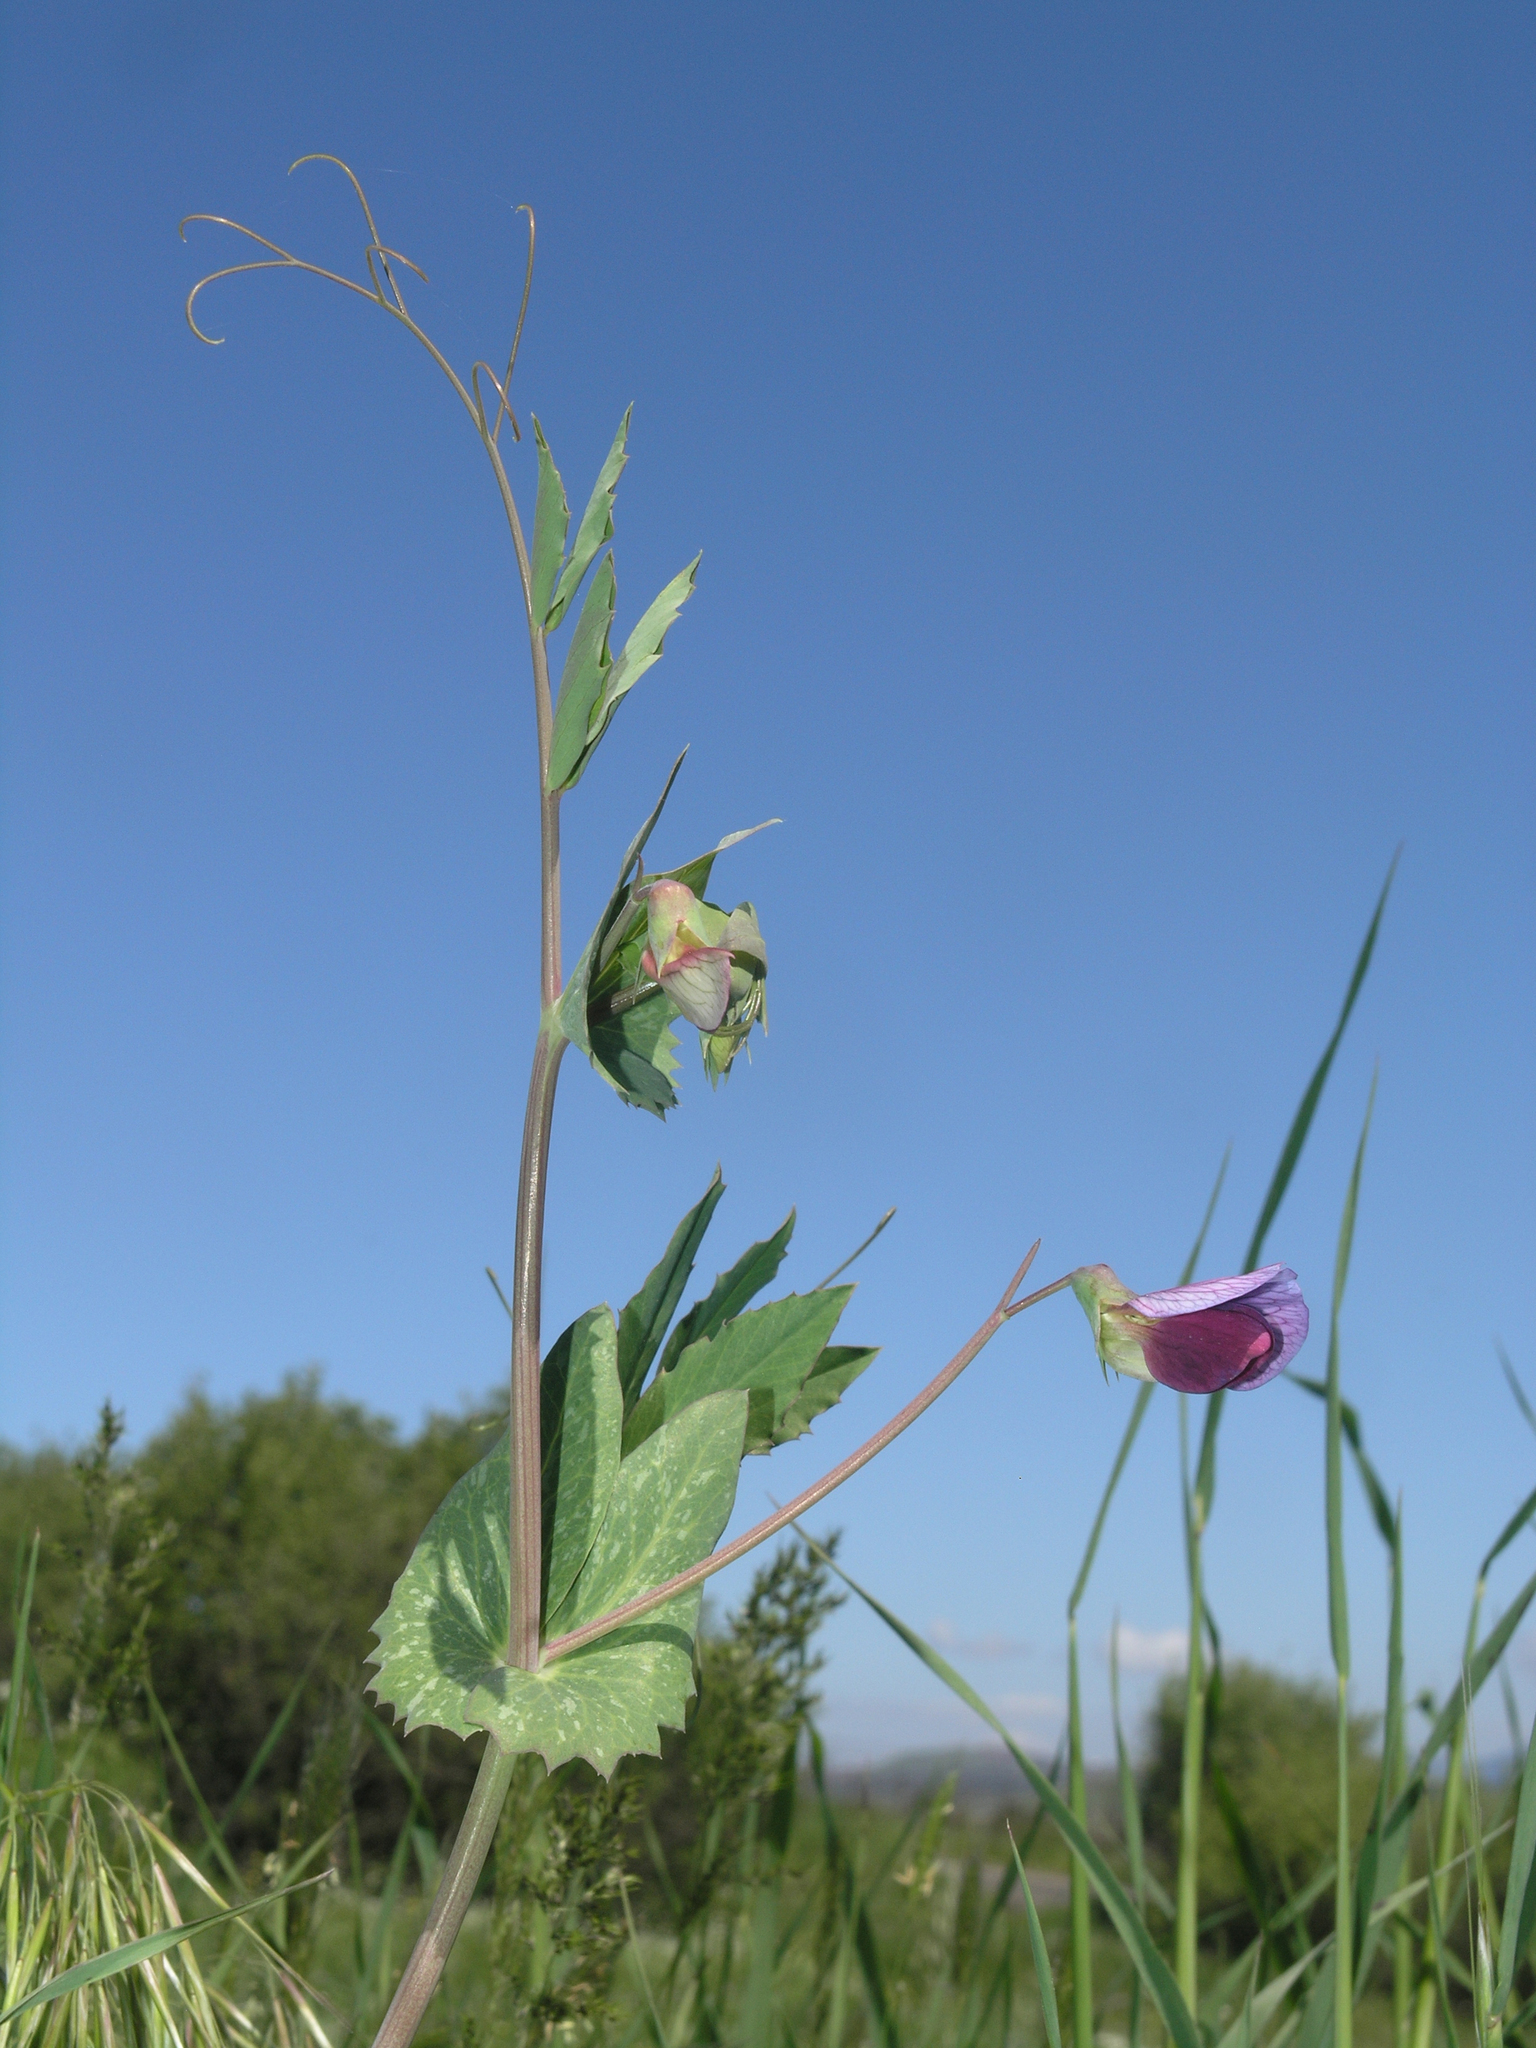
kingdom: Plantae
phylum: Tracheophyta
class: Magnoliopsida
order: Fabales
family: Fabaceae
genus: Lathyrus
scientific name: Lathyrus oleraceus
